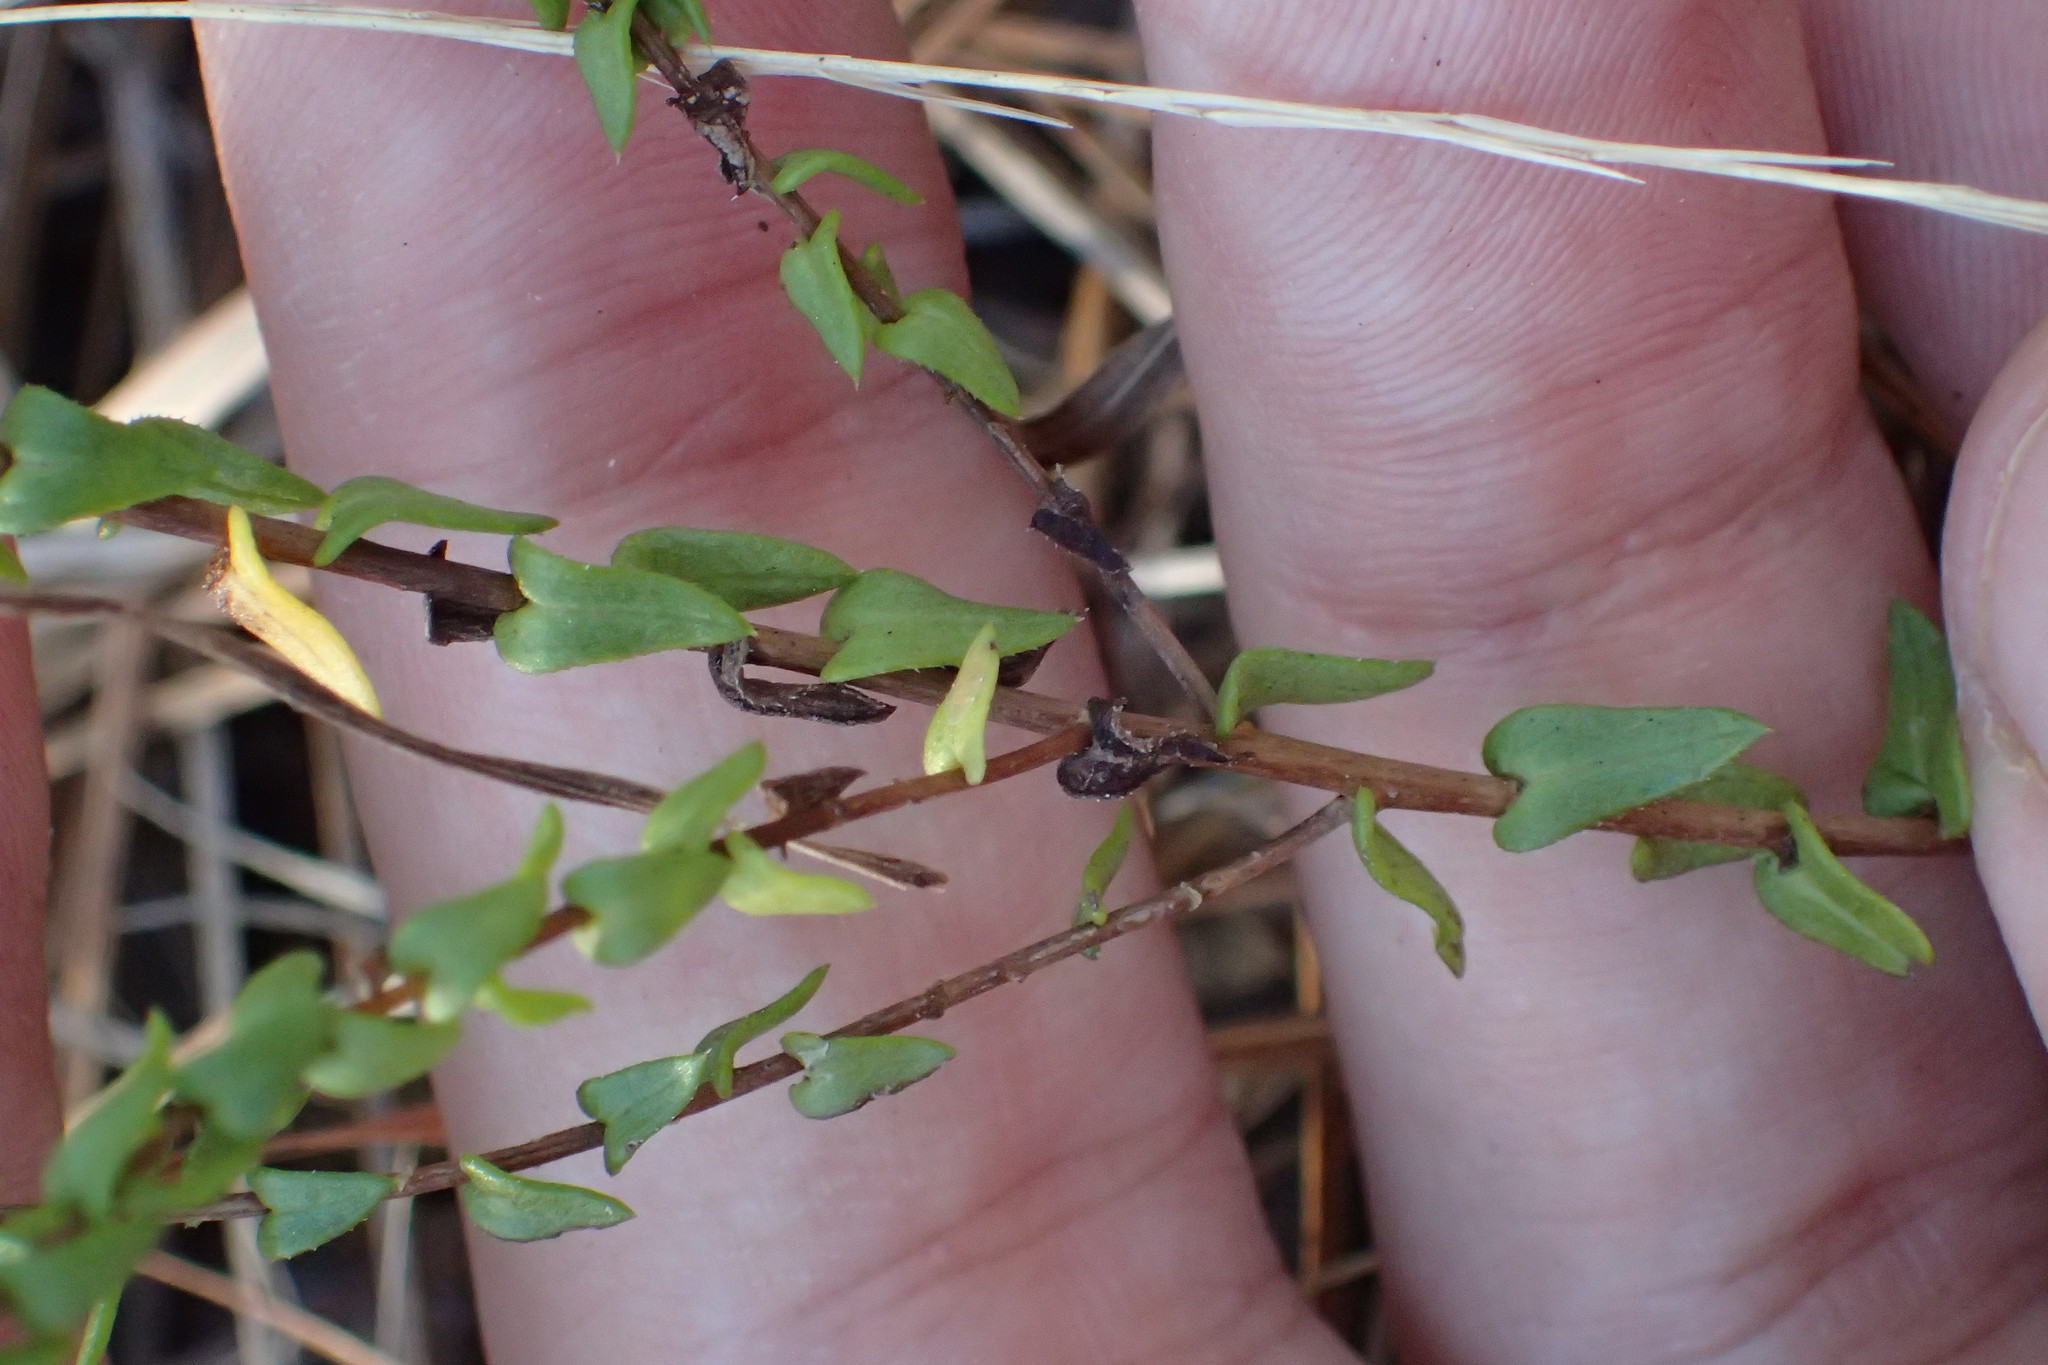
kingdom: Plantae
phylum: Tracheophyta
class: Magnoliopsida
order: Asterales
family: Asteraceae
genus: Symphyotrichum
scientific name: Symphyotrichum walteri
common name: Walter's aster
